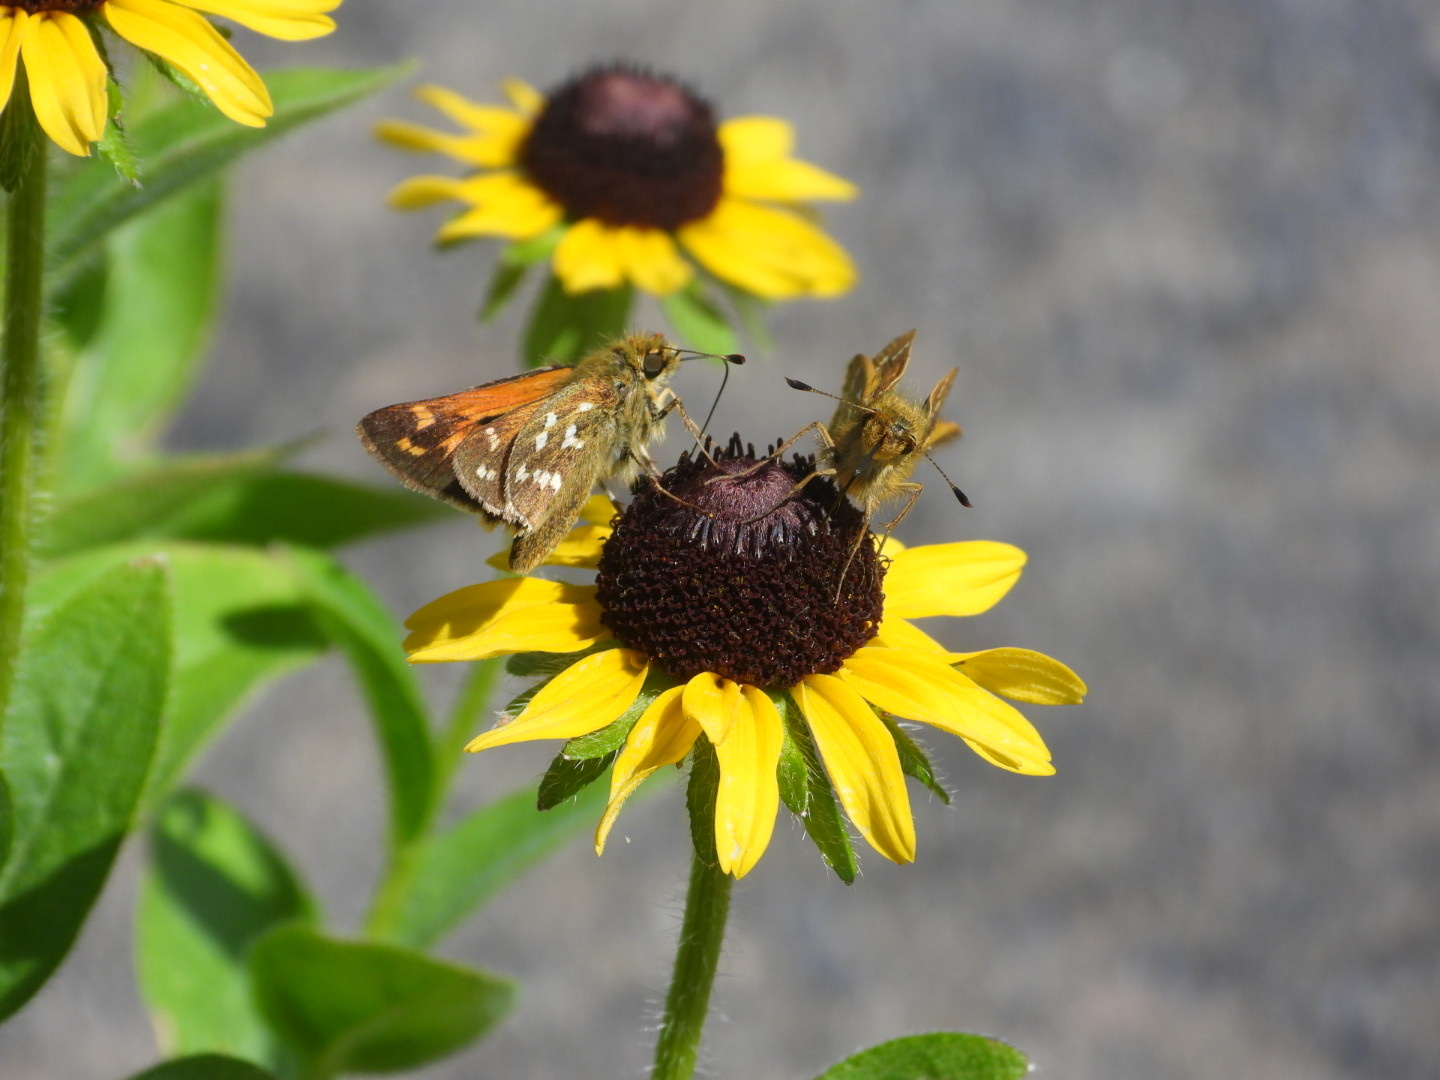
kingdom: Animalia
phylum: Arthropoda
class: Insecta
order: Lepidoptera
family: Hesperiidae
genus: Hesperia
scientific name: Hesperia comma
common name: Common branded skipper
